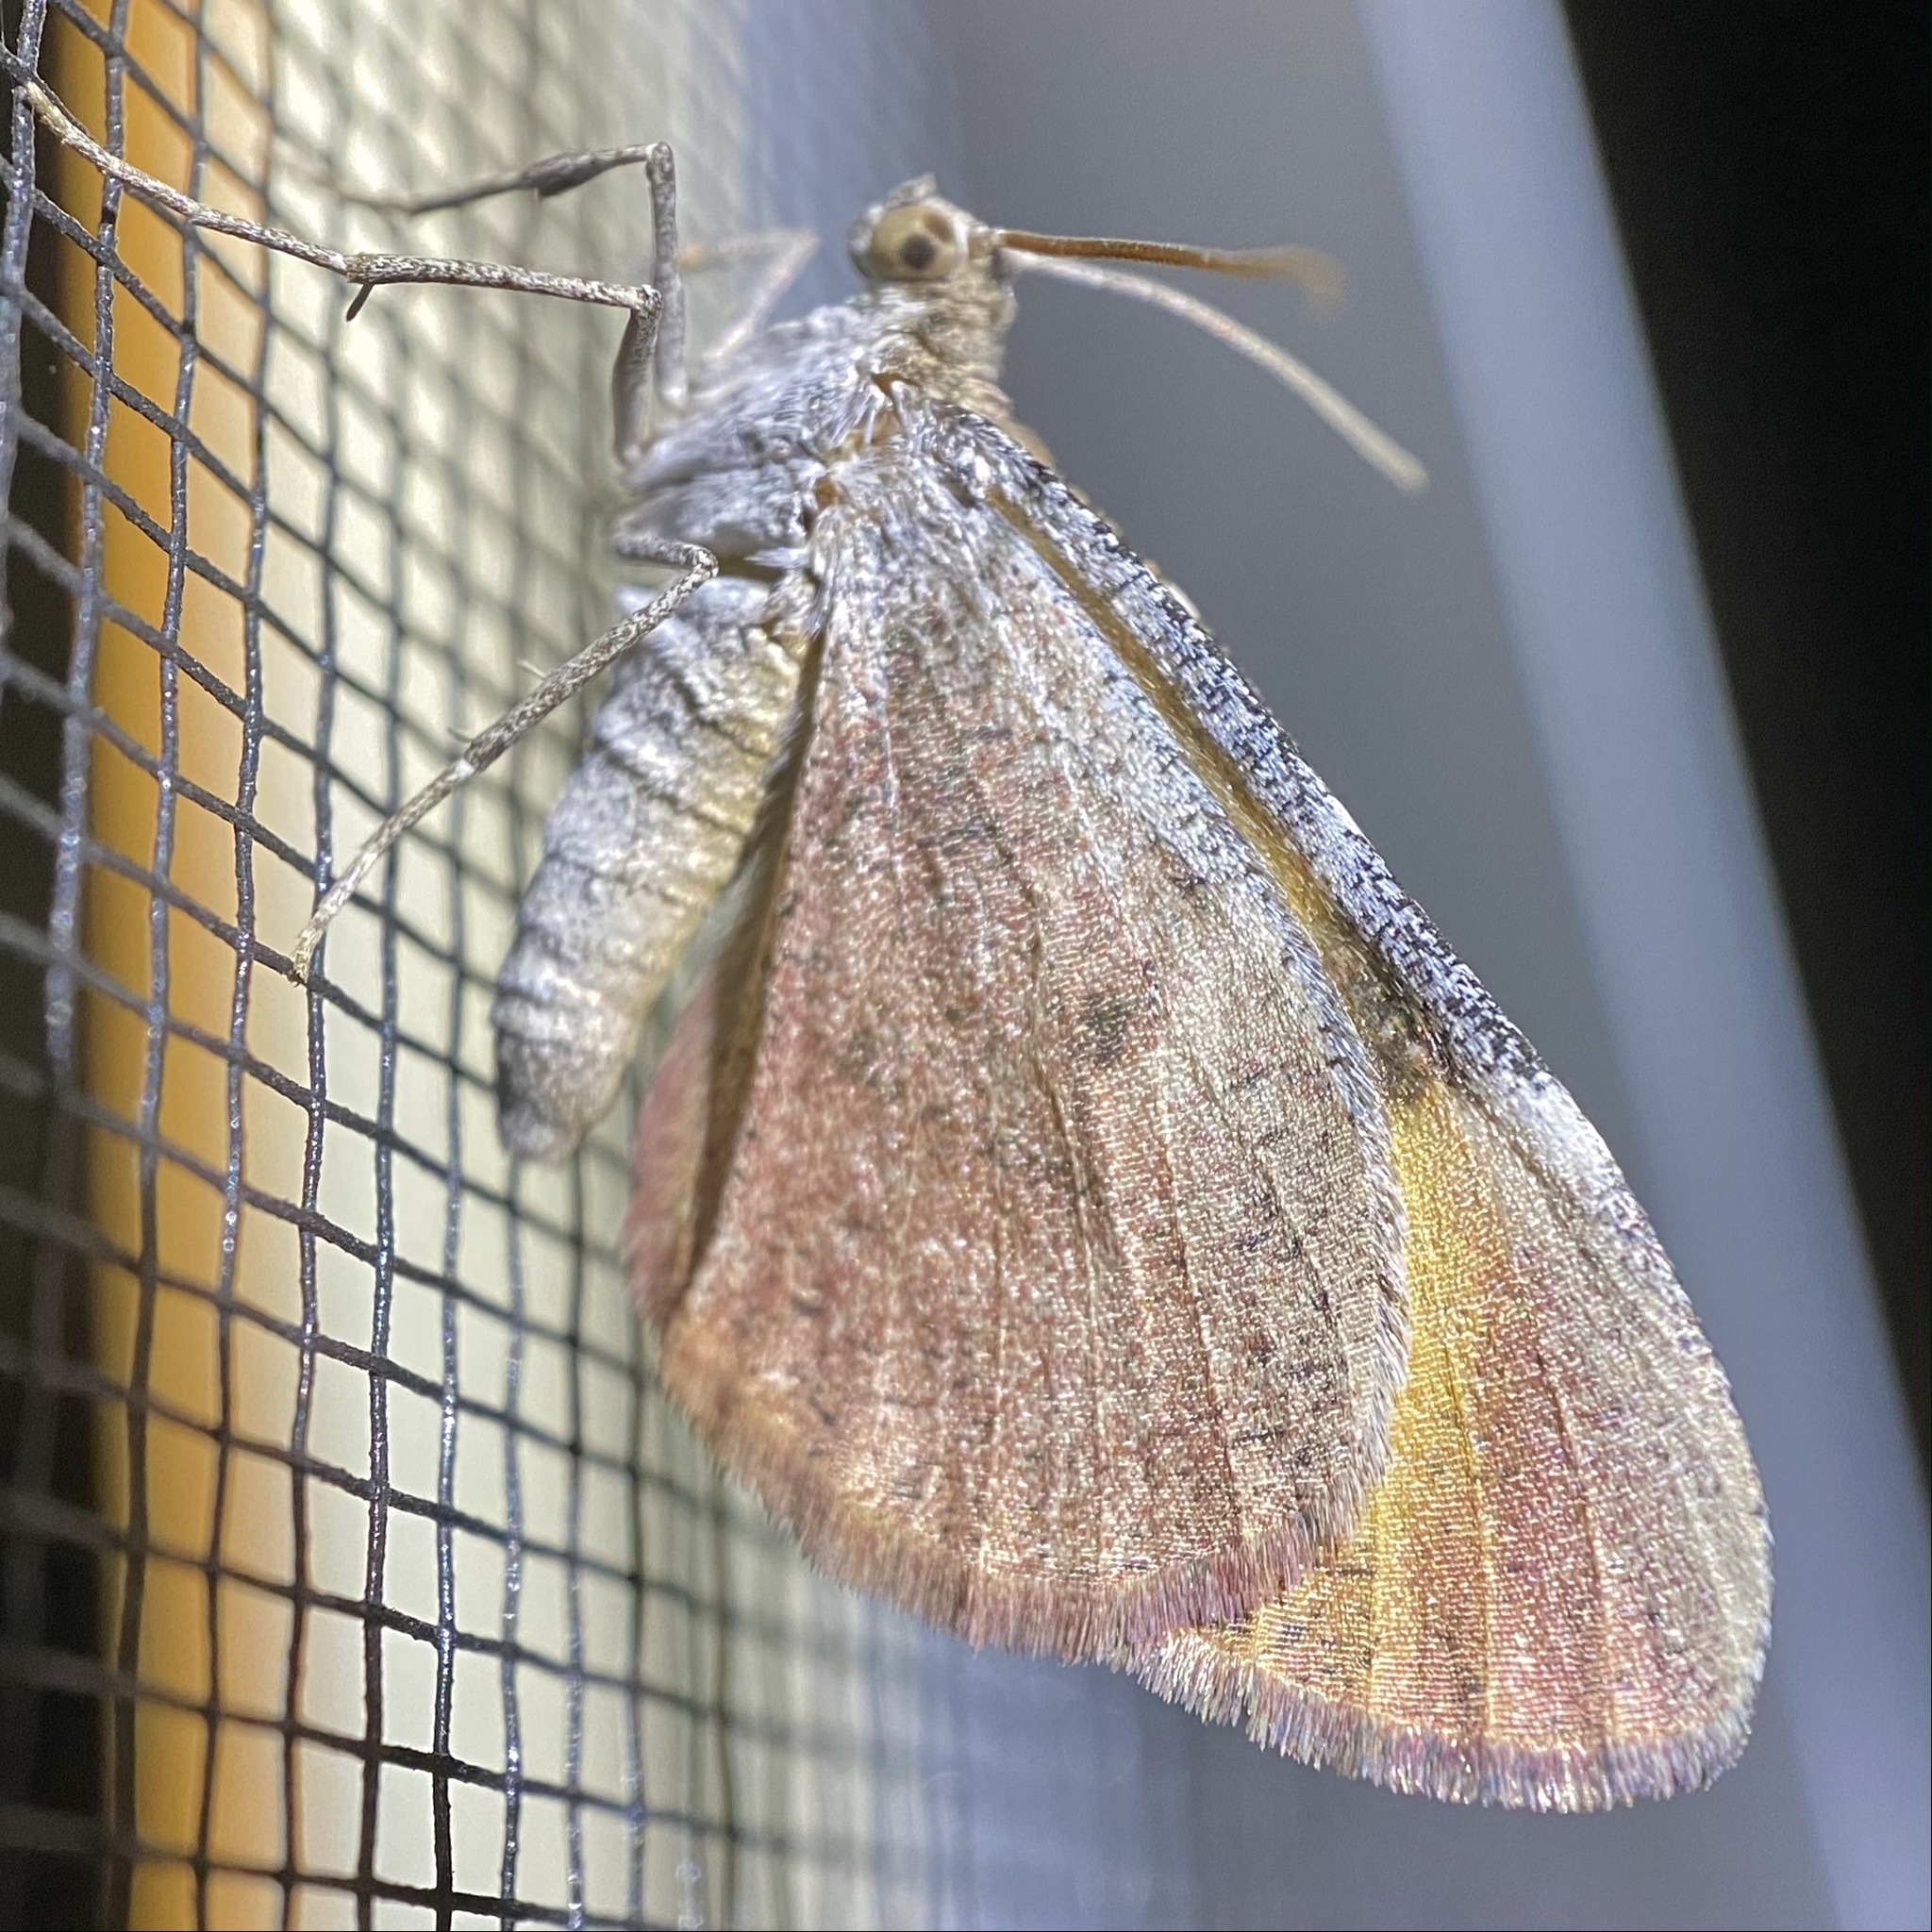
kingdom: Animalia
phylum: Arthropoda
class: Insecta
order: Lepidoptera
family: Geometridae
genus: Stamnodes
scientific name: Stamnodes seiferti
